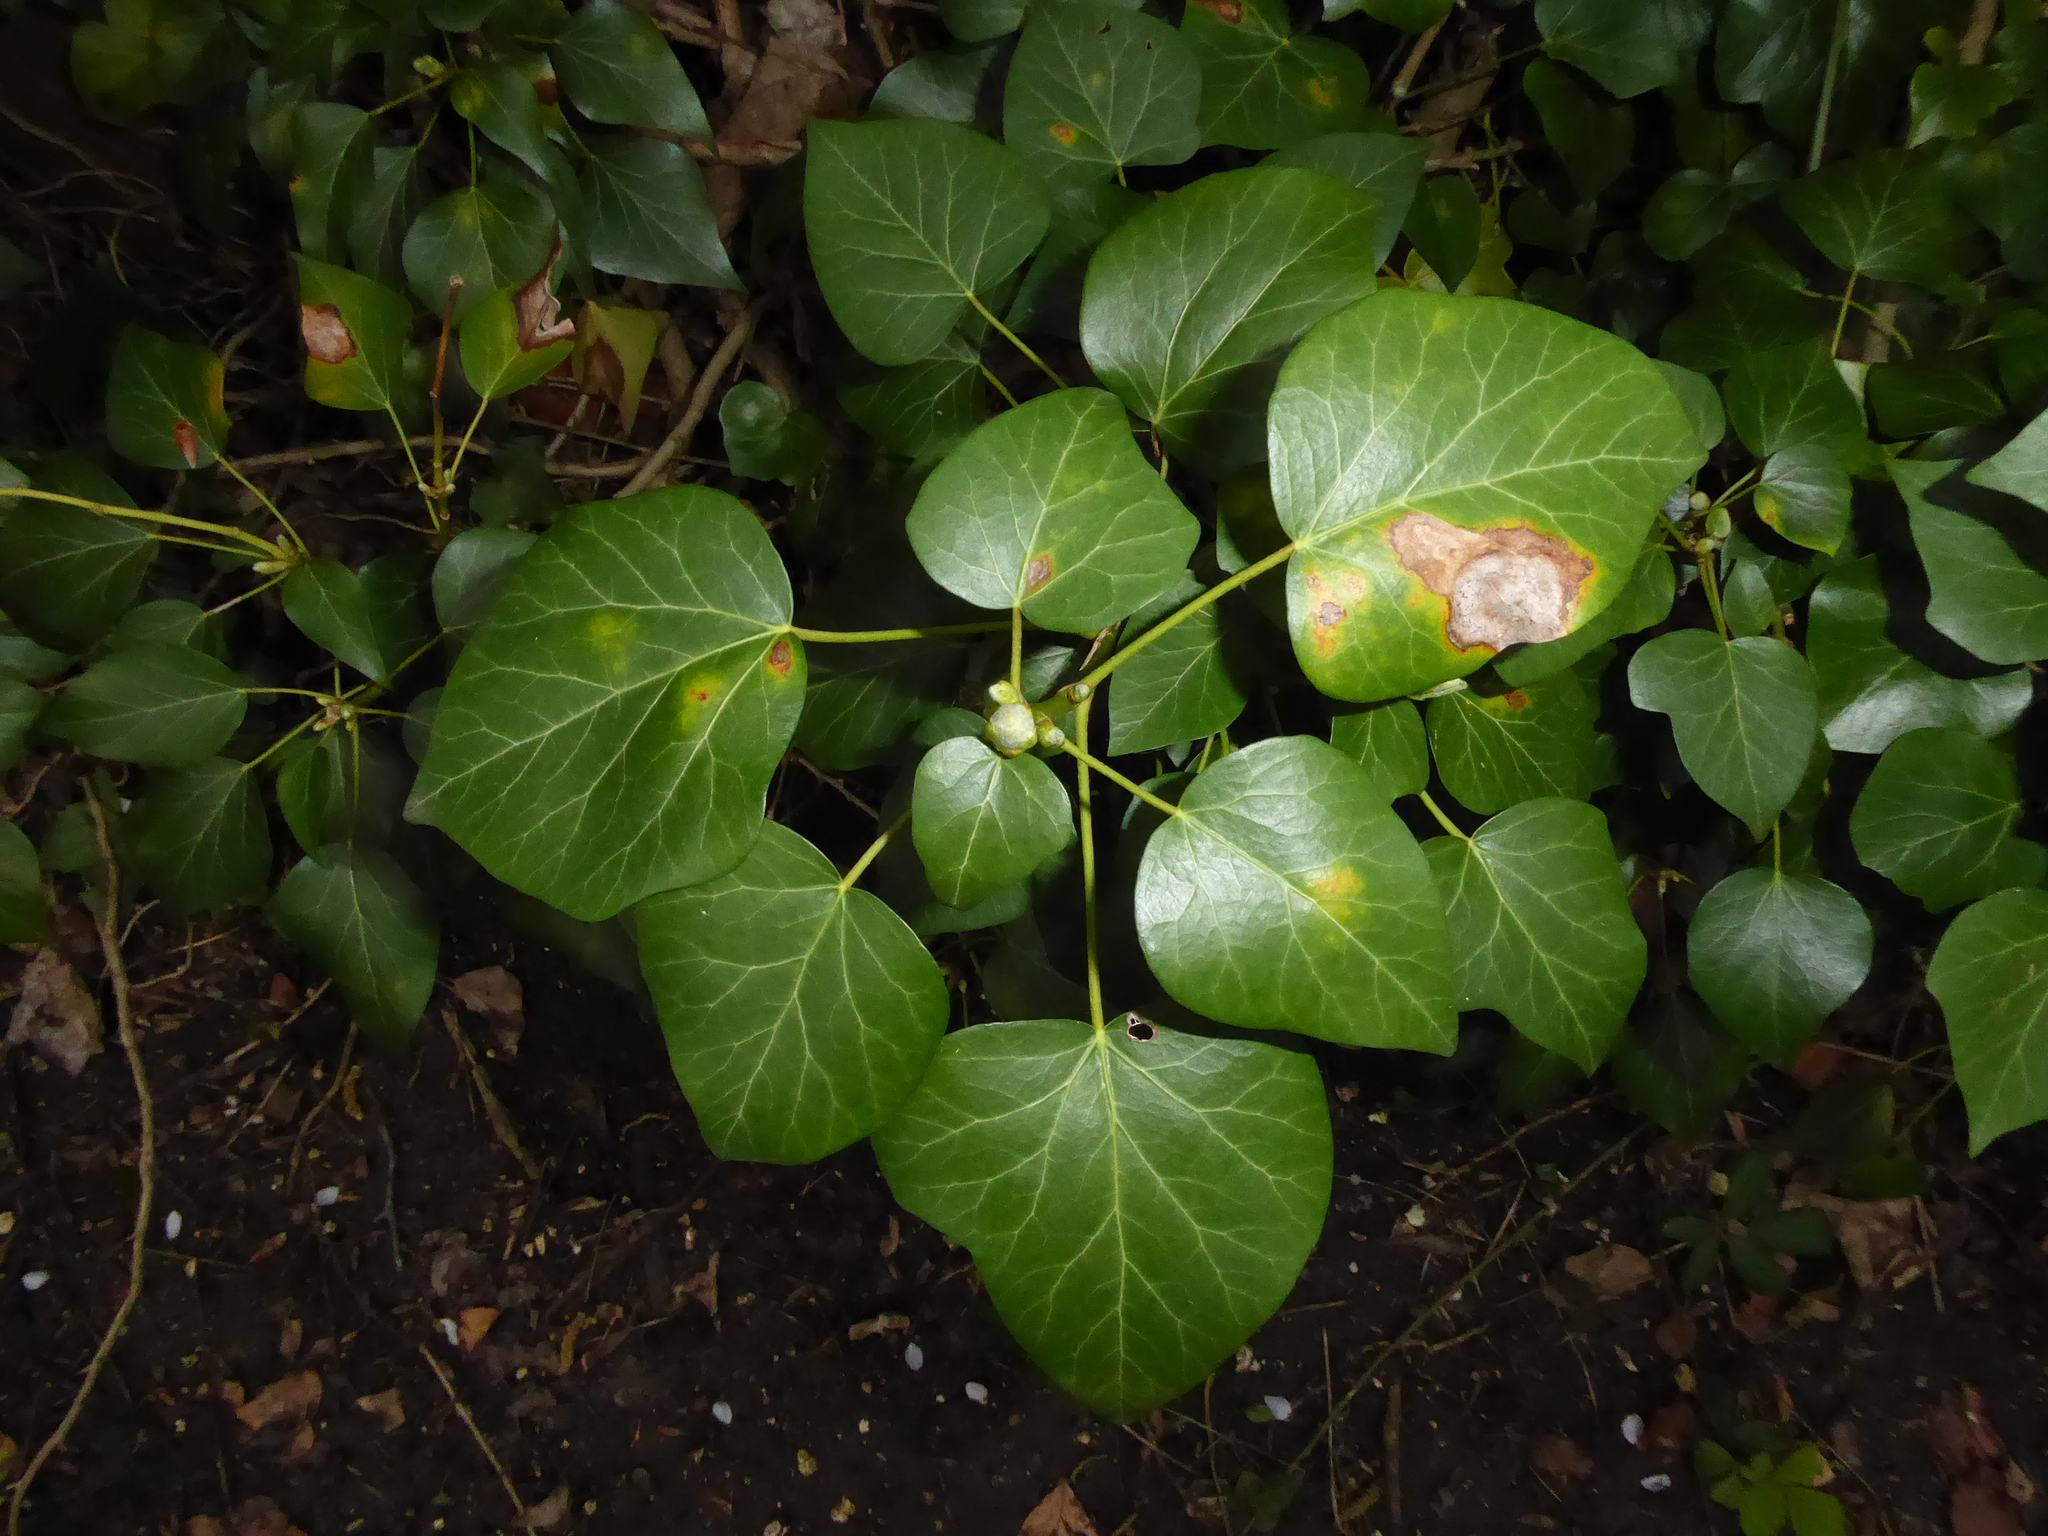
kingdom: Plantae
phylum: Tracheophyta
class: Magnoliopsida
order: Apiales
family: Araliaceae
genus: Hedera
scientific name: Hedera helix
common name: Ivy
